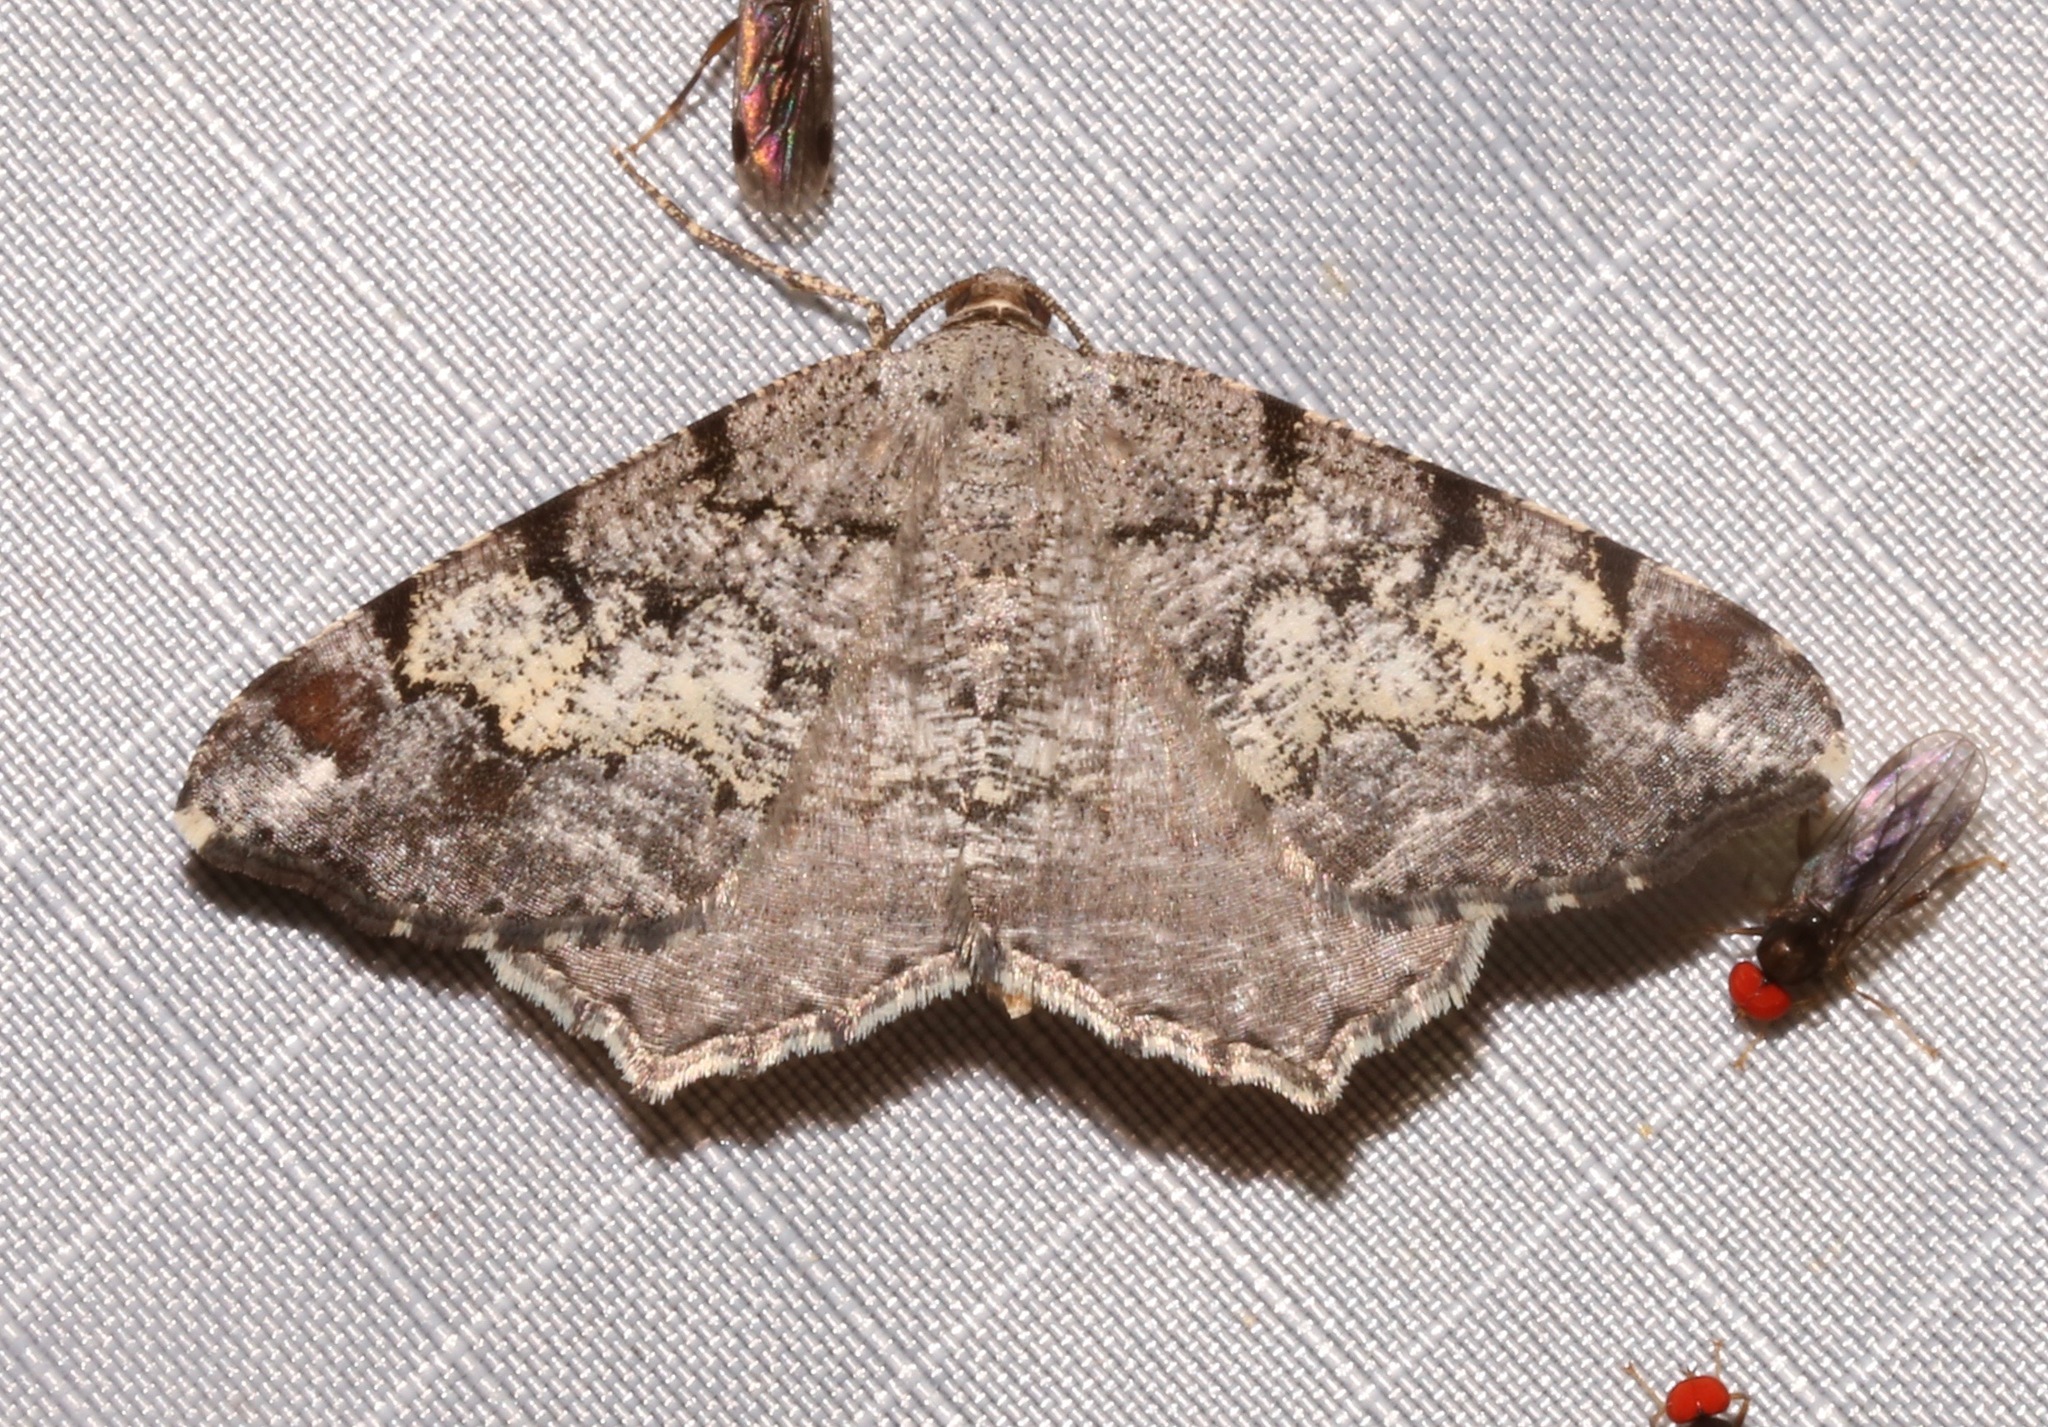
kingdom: Animalia
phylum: Arthropoda
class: Insecta
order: Lepidoptera
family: Geometridae
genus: Macaria
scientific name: Macaria granitata
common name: Granite moth
